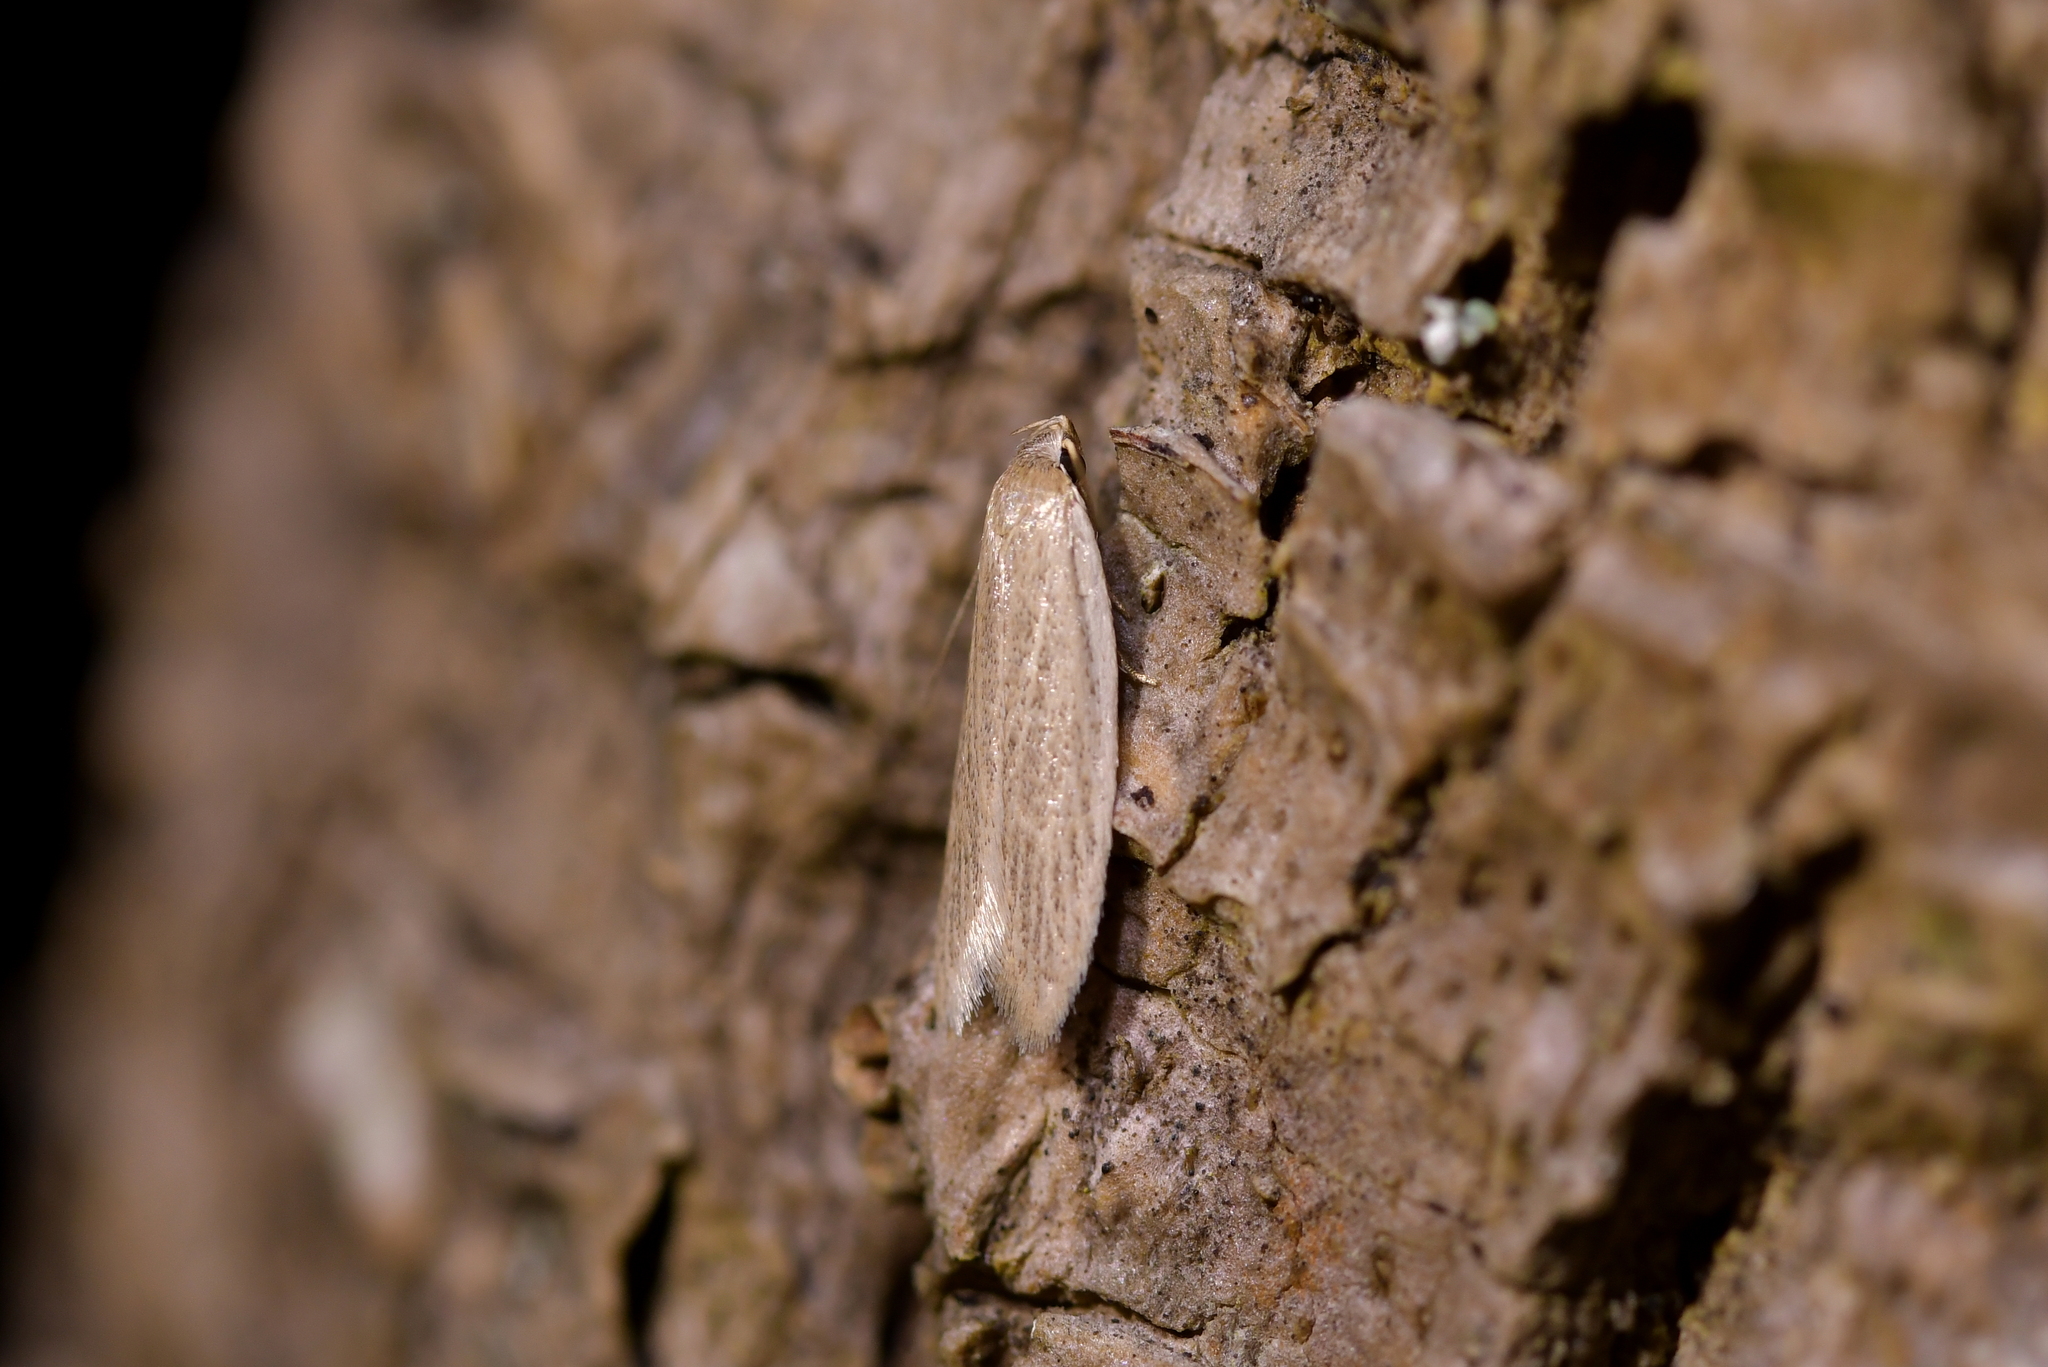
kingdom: Animalia
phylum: Arthropoda
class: Insecta
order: Lepidoptera
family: Xyloryctidae
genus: Scieropepla
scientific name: Scieropepla typhicola
